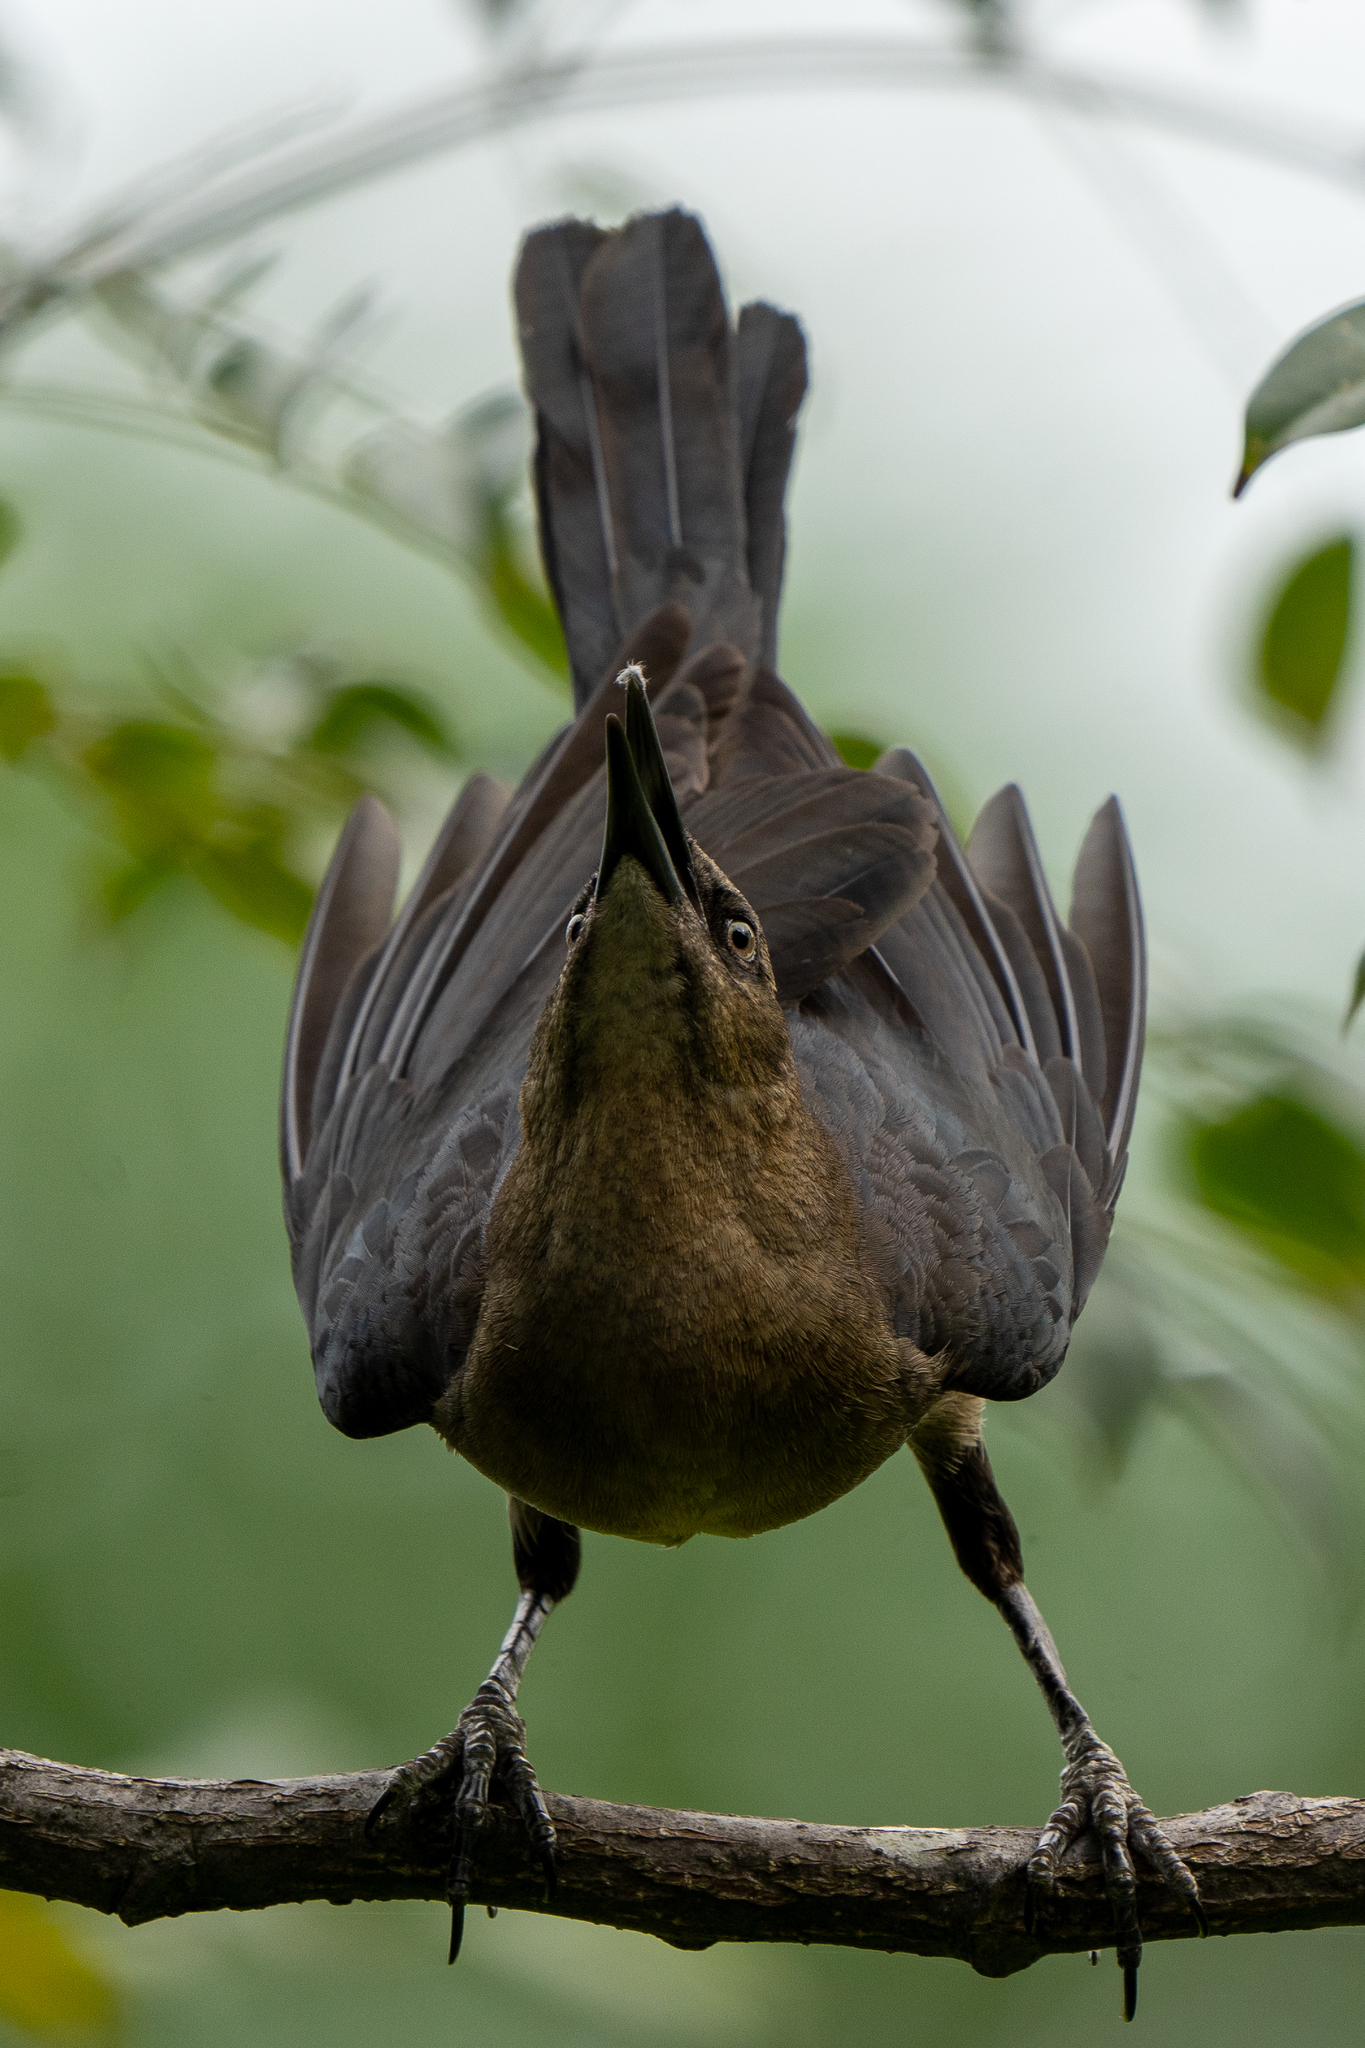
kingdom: Animalia
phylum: Chordata
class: Aves
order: Passeriformes
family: Icteridae
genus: Quiscalus
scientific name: Quiscalus mexicanus
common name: Great-tailed grackle
